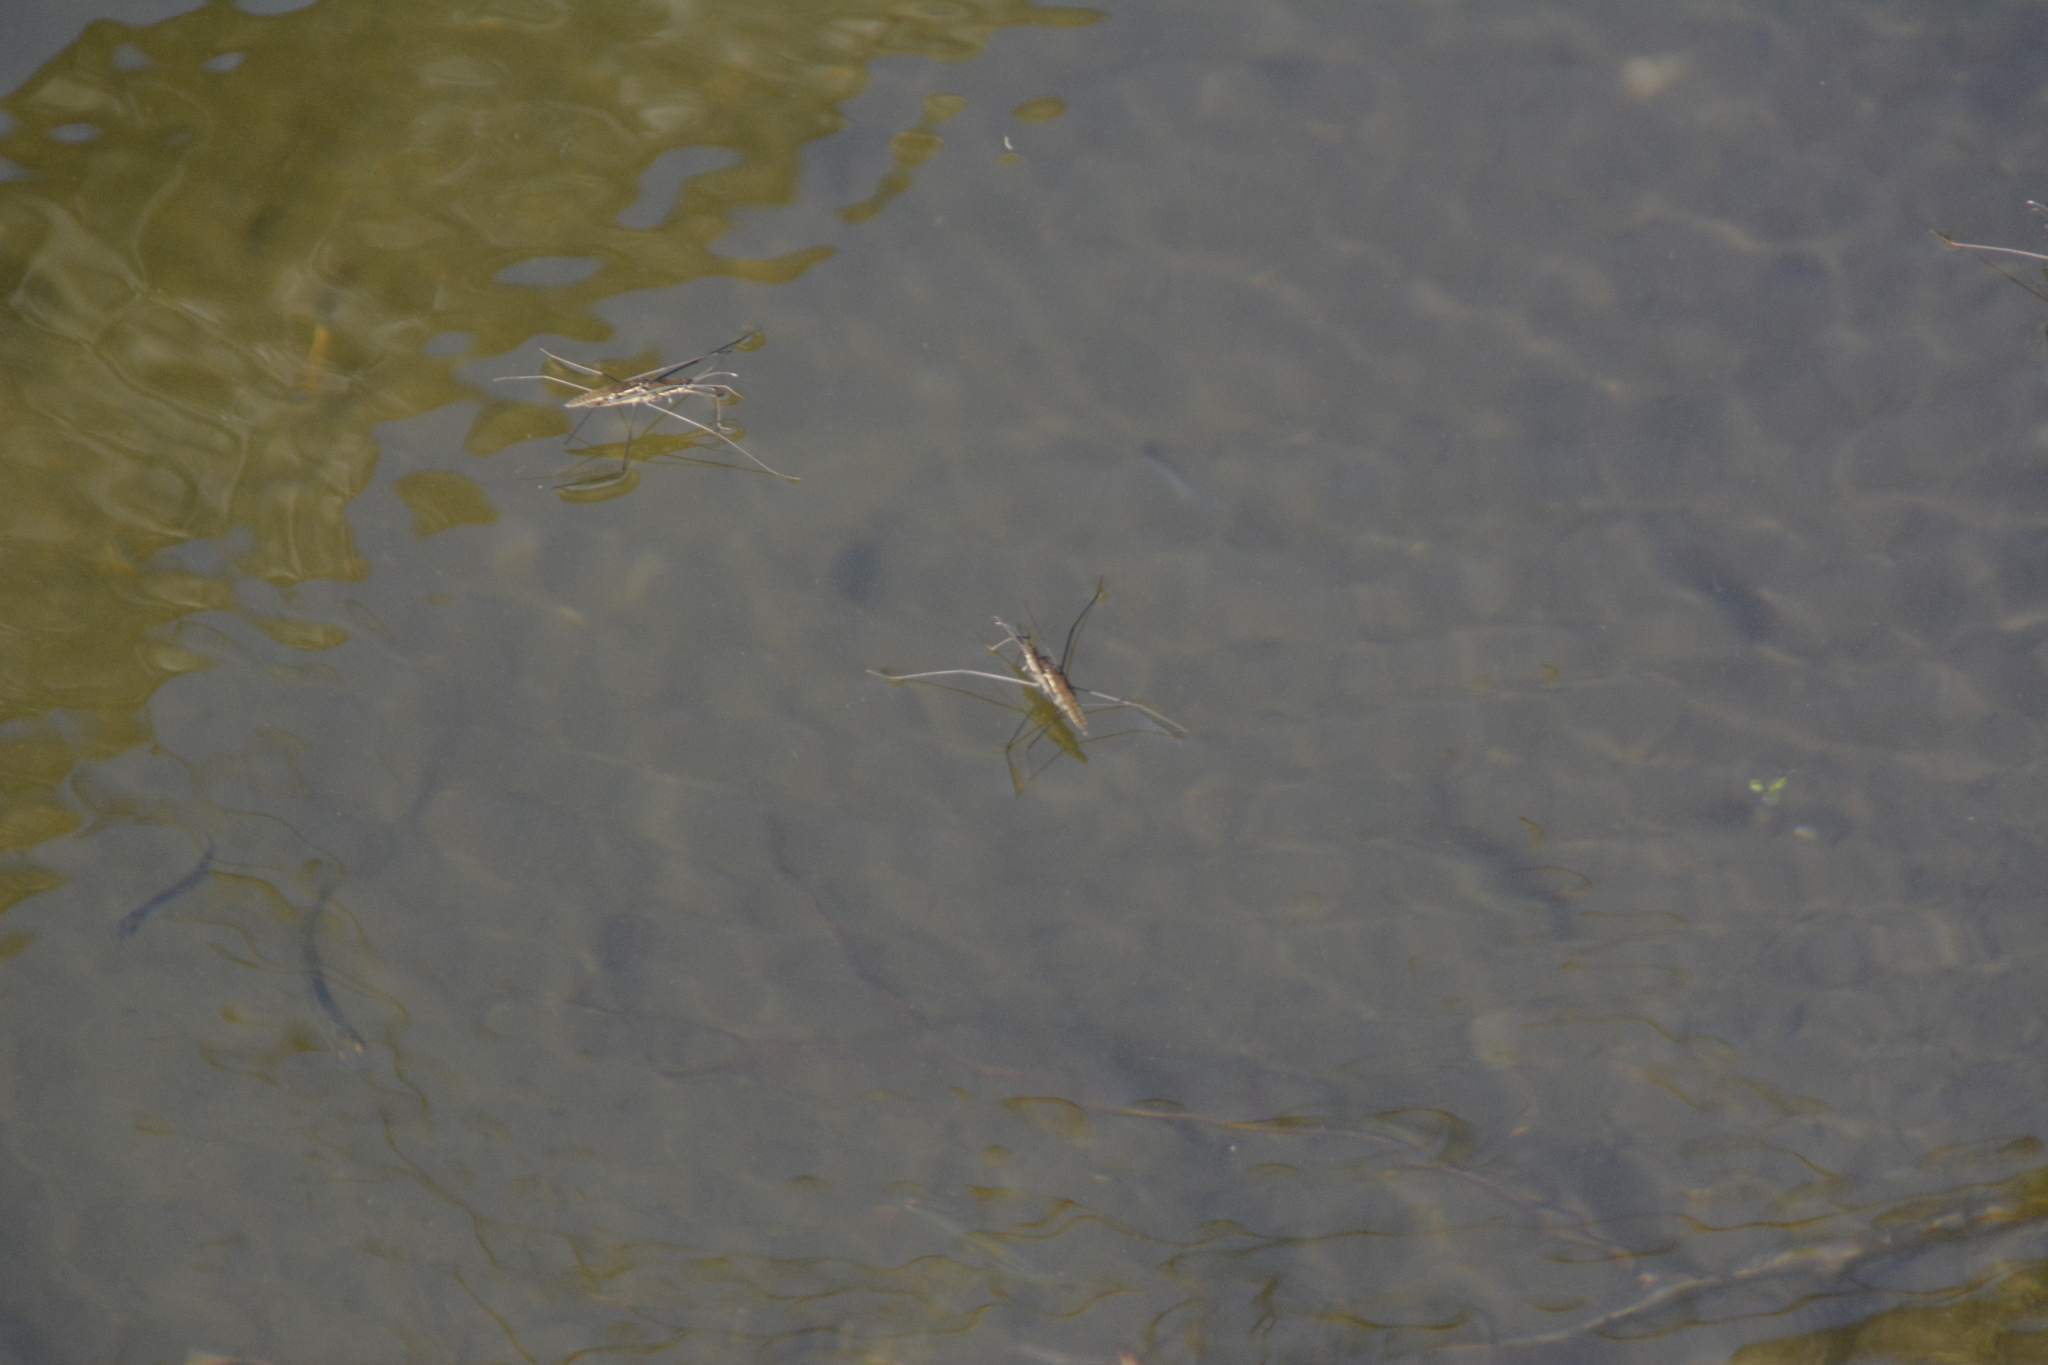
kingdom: Animalia
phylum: Arthropoda
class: Insecta
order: Hemiptera
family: Gerridae
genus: Aquarius
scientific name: Aquarius najas
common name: River skater
